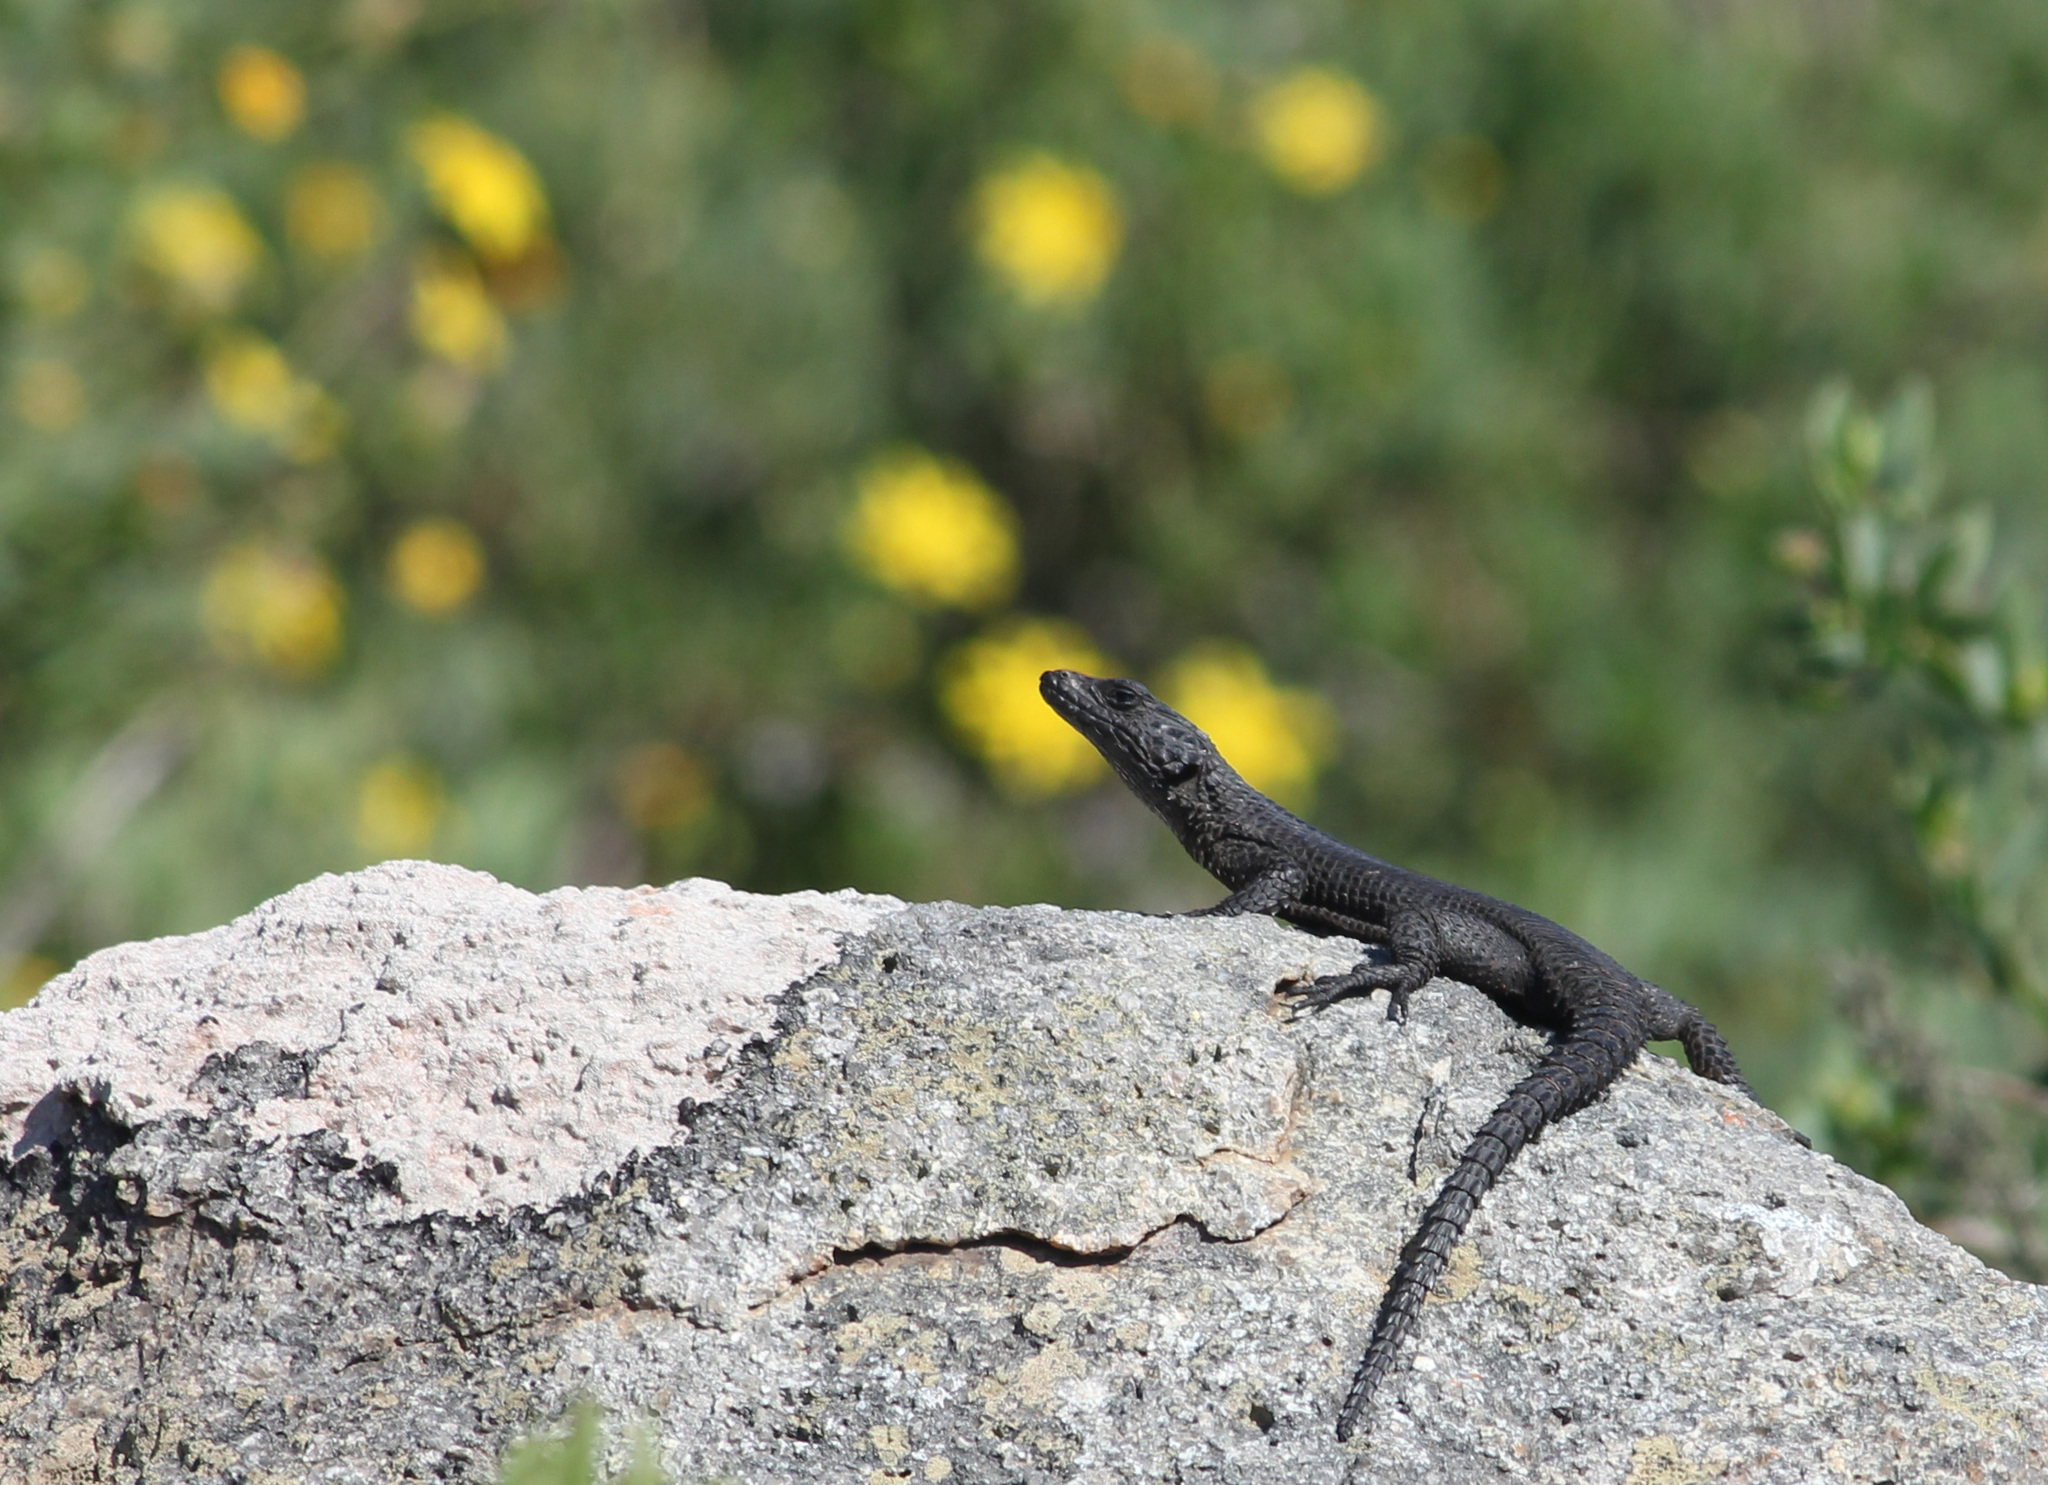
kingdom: Animalia
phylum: Chordata
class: Squamata
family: Cordylidae
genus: Karusasaurus
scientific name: Karusasaurus polyzonus
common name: Karoo girdled lizard
